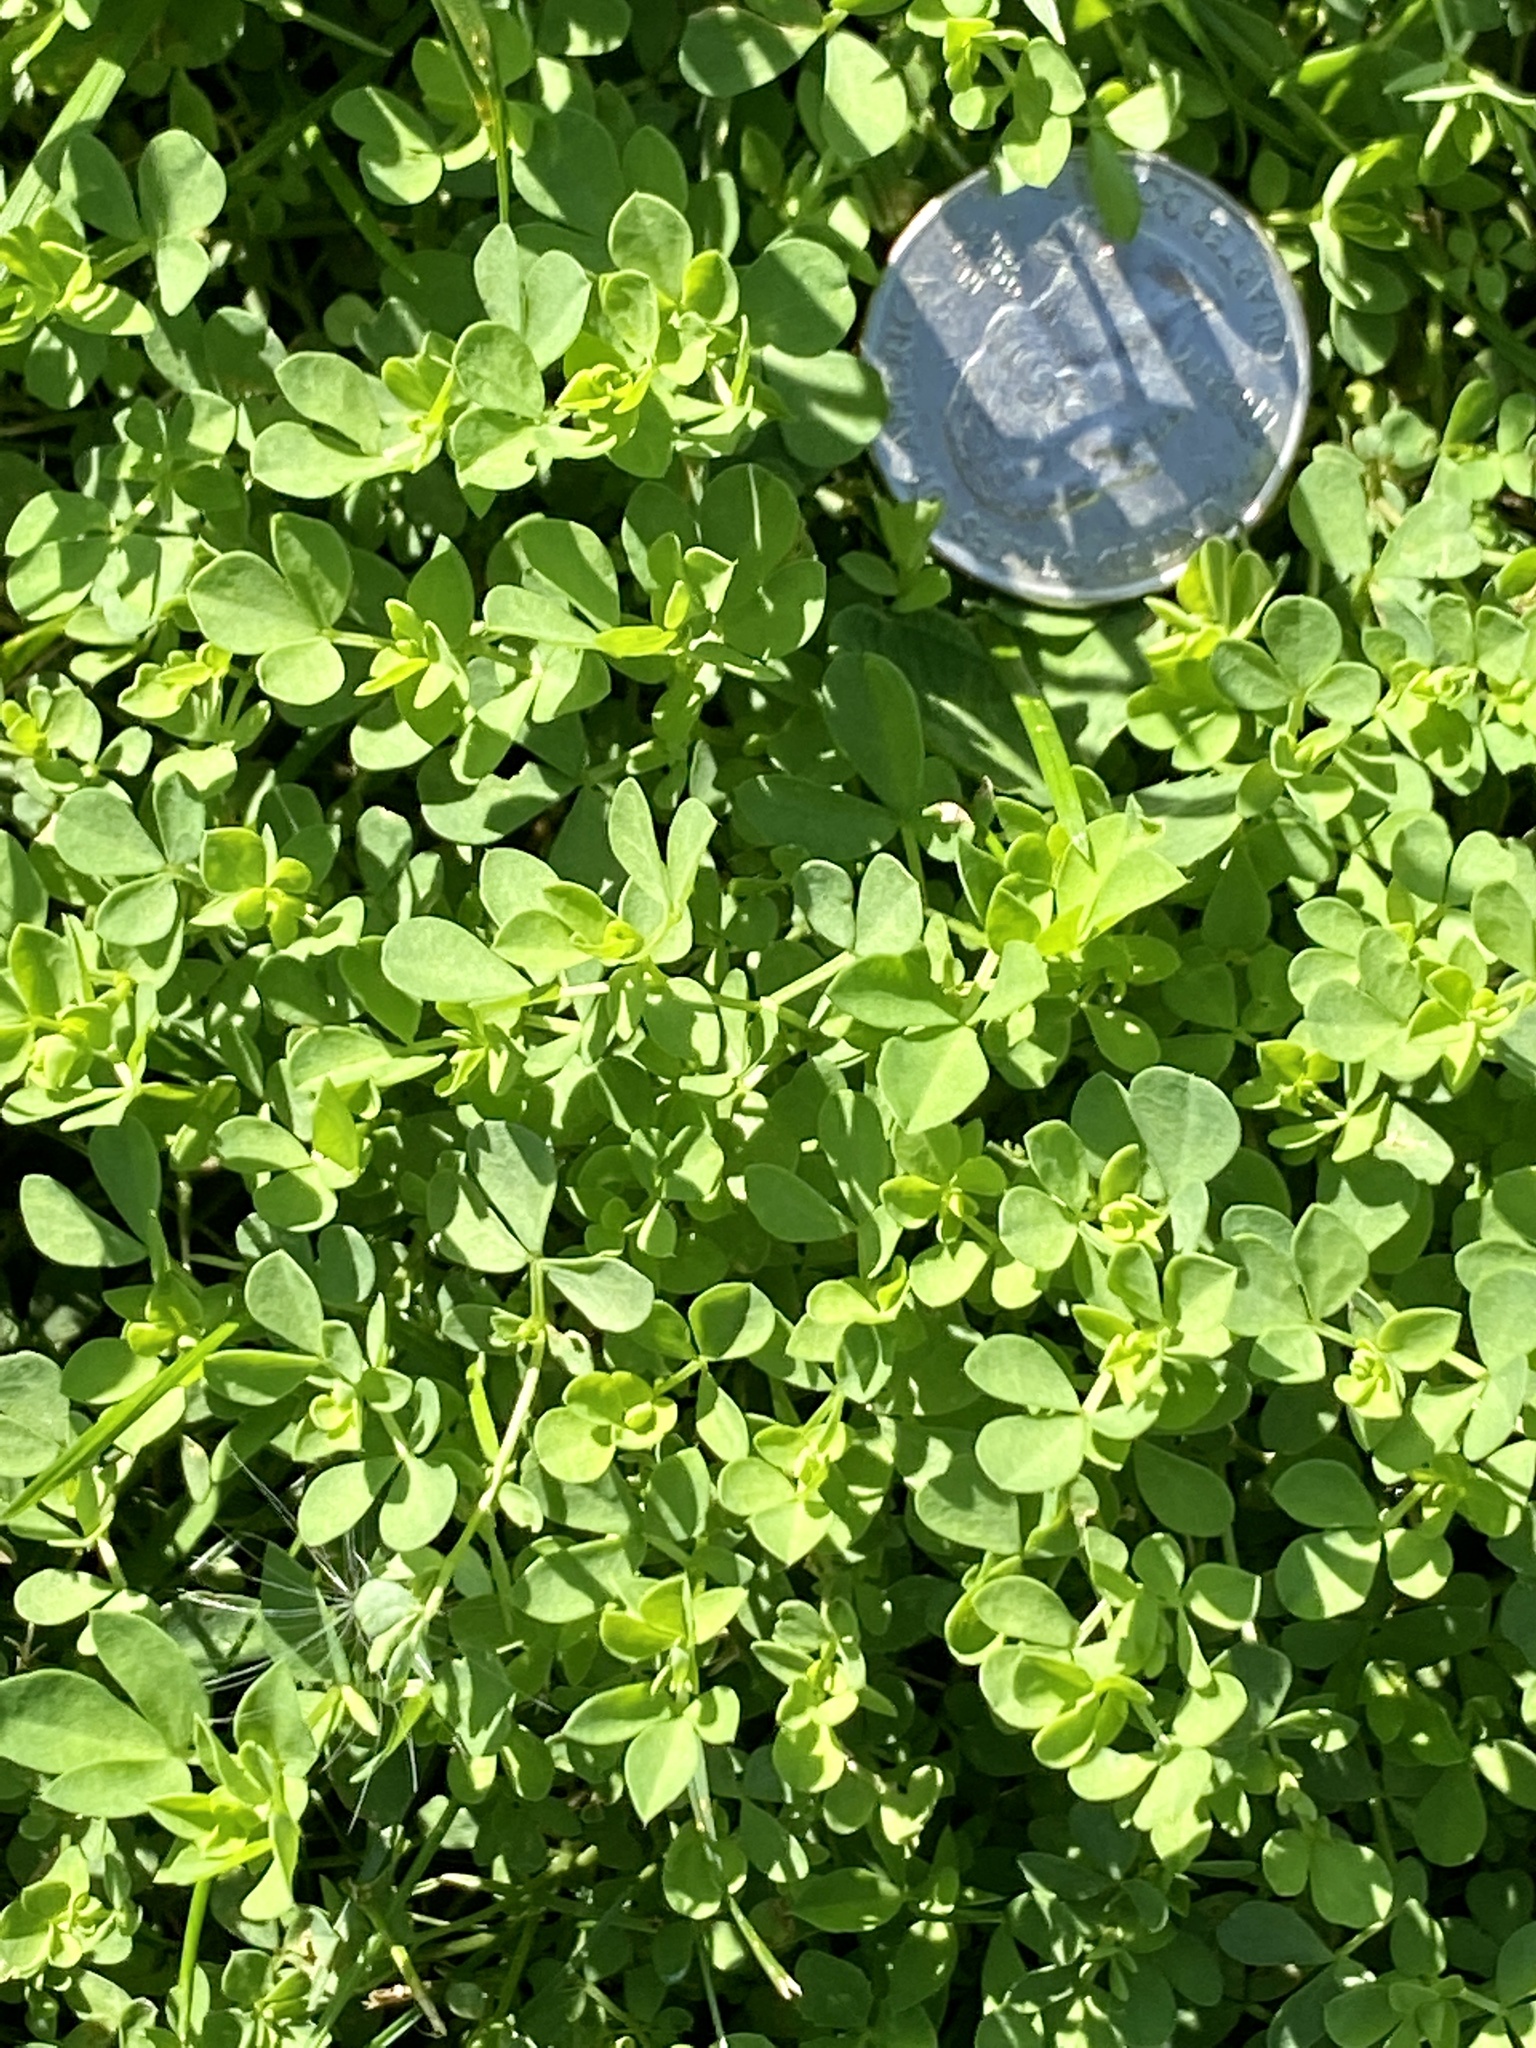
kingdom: Plantae
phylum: Tracheophyta
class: Magnoliopsida
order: Fabales
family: Fabaceae
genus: Lotus
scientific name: Lotus corniculatus
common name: Common bird's-foot-trefoil
